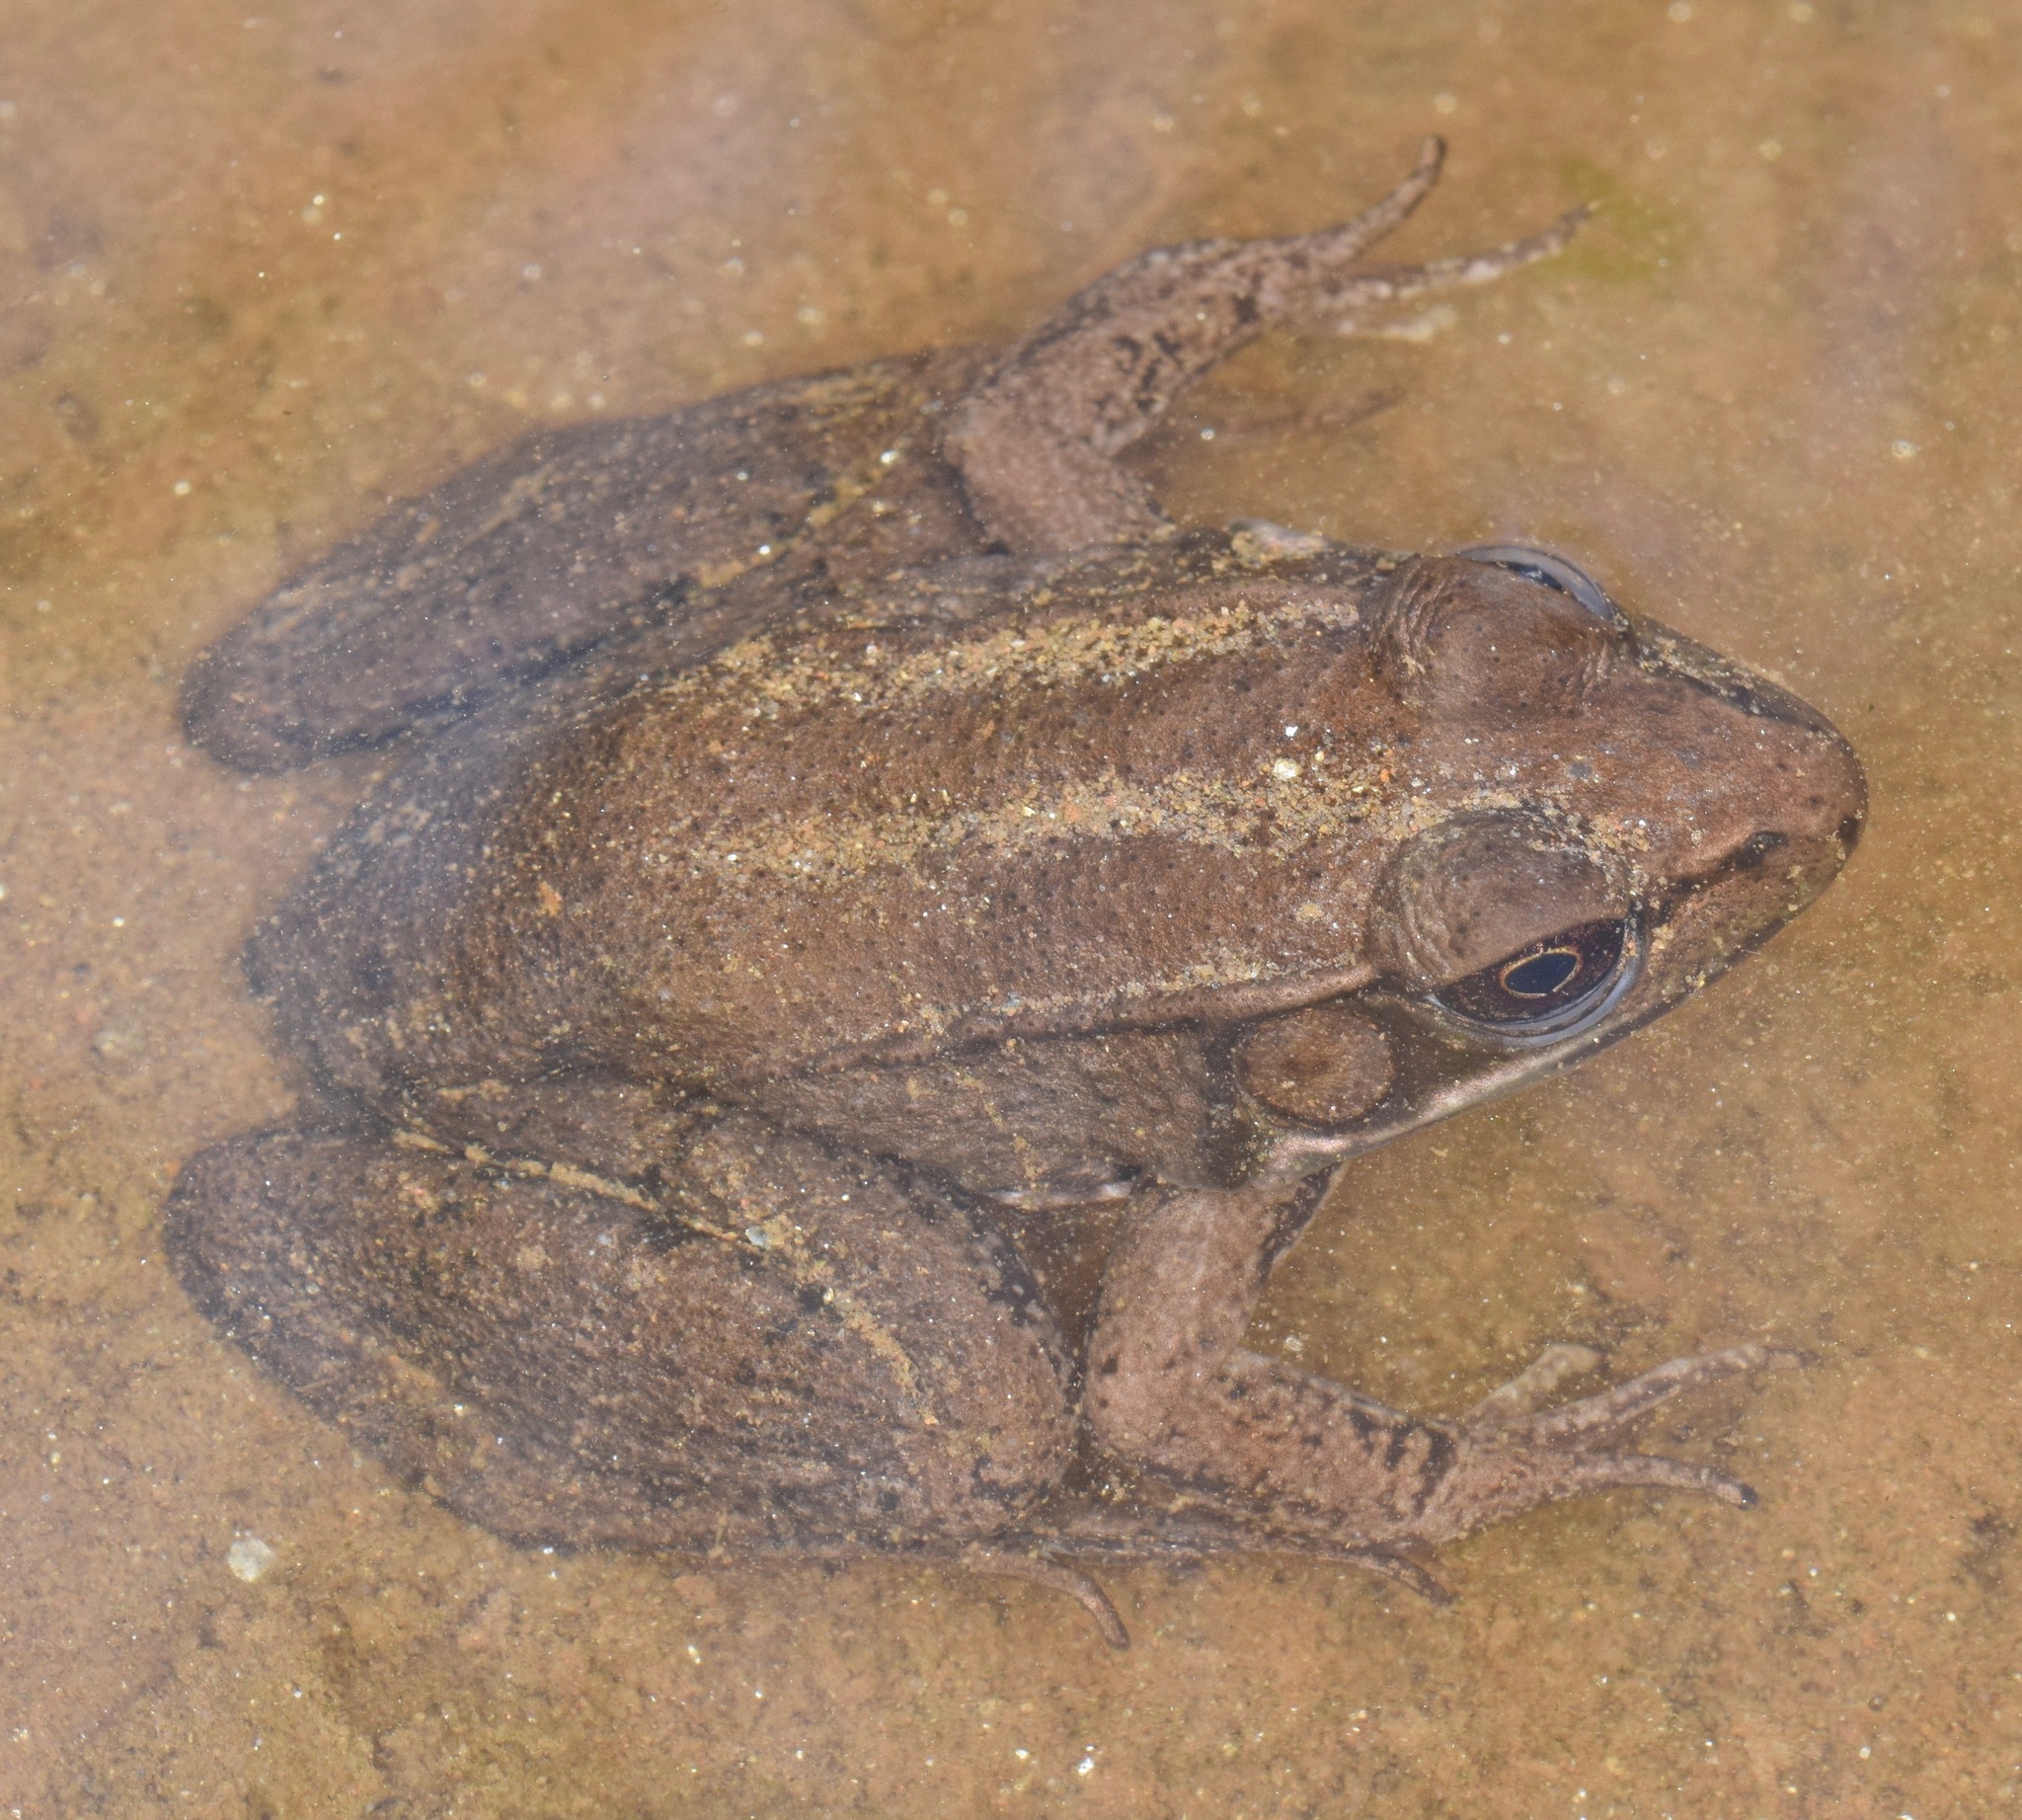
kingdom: Animalia
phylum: Chordata
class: Amphibia
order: Anura
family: Ranidae
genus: Lithobates
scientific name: Lithobates clamitans
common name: Green frog
